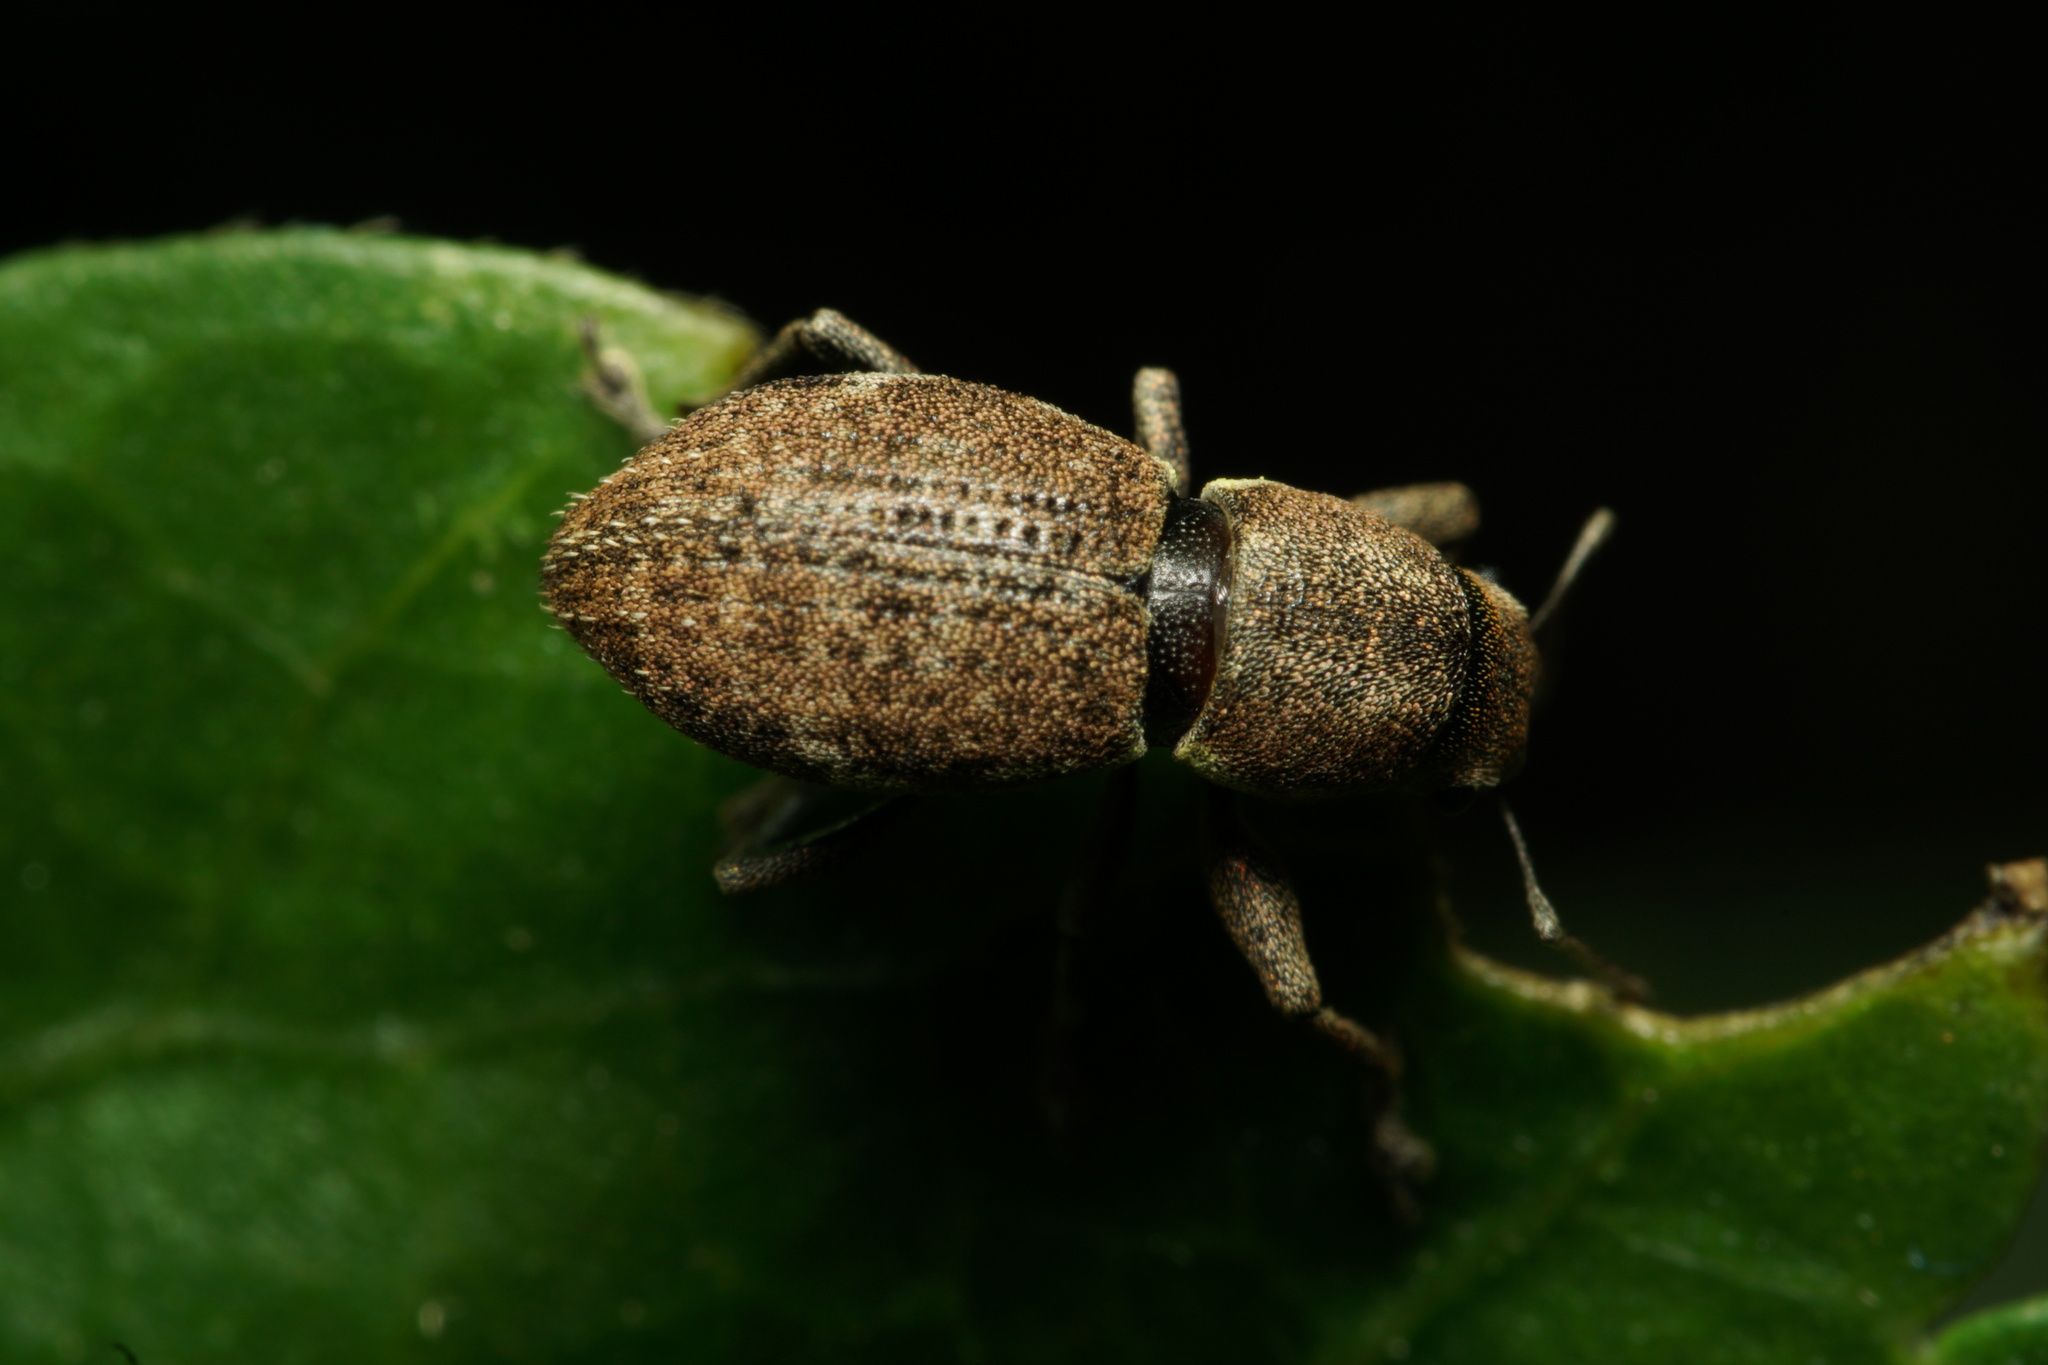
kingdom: Animalia
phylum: Arthropoda
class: Insecta
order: Coleoptera
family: Curculionidae
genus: Naupactus
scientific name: Naupactus cervinus
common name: Fuller rose beetle
